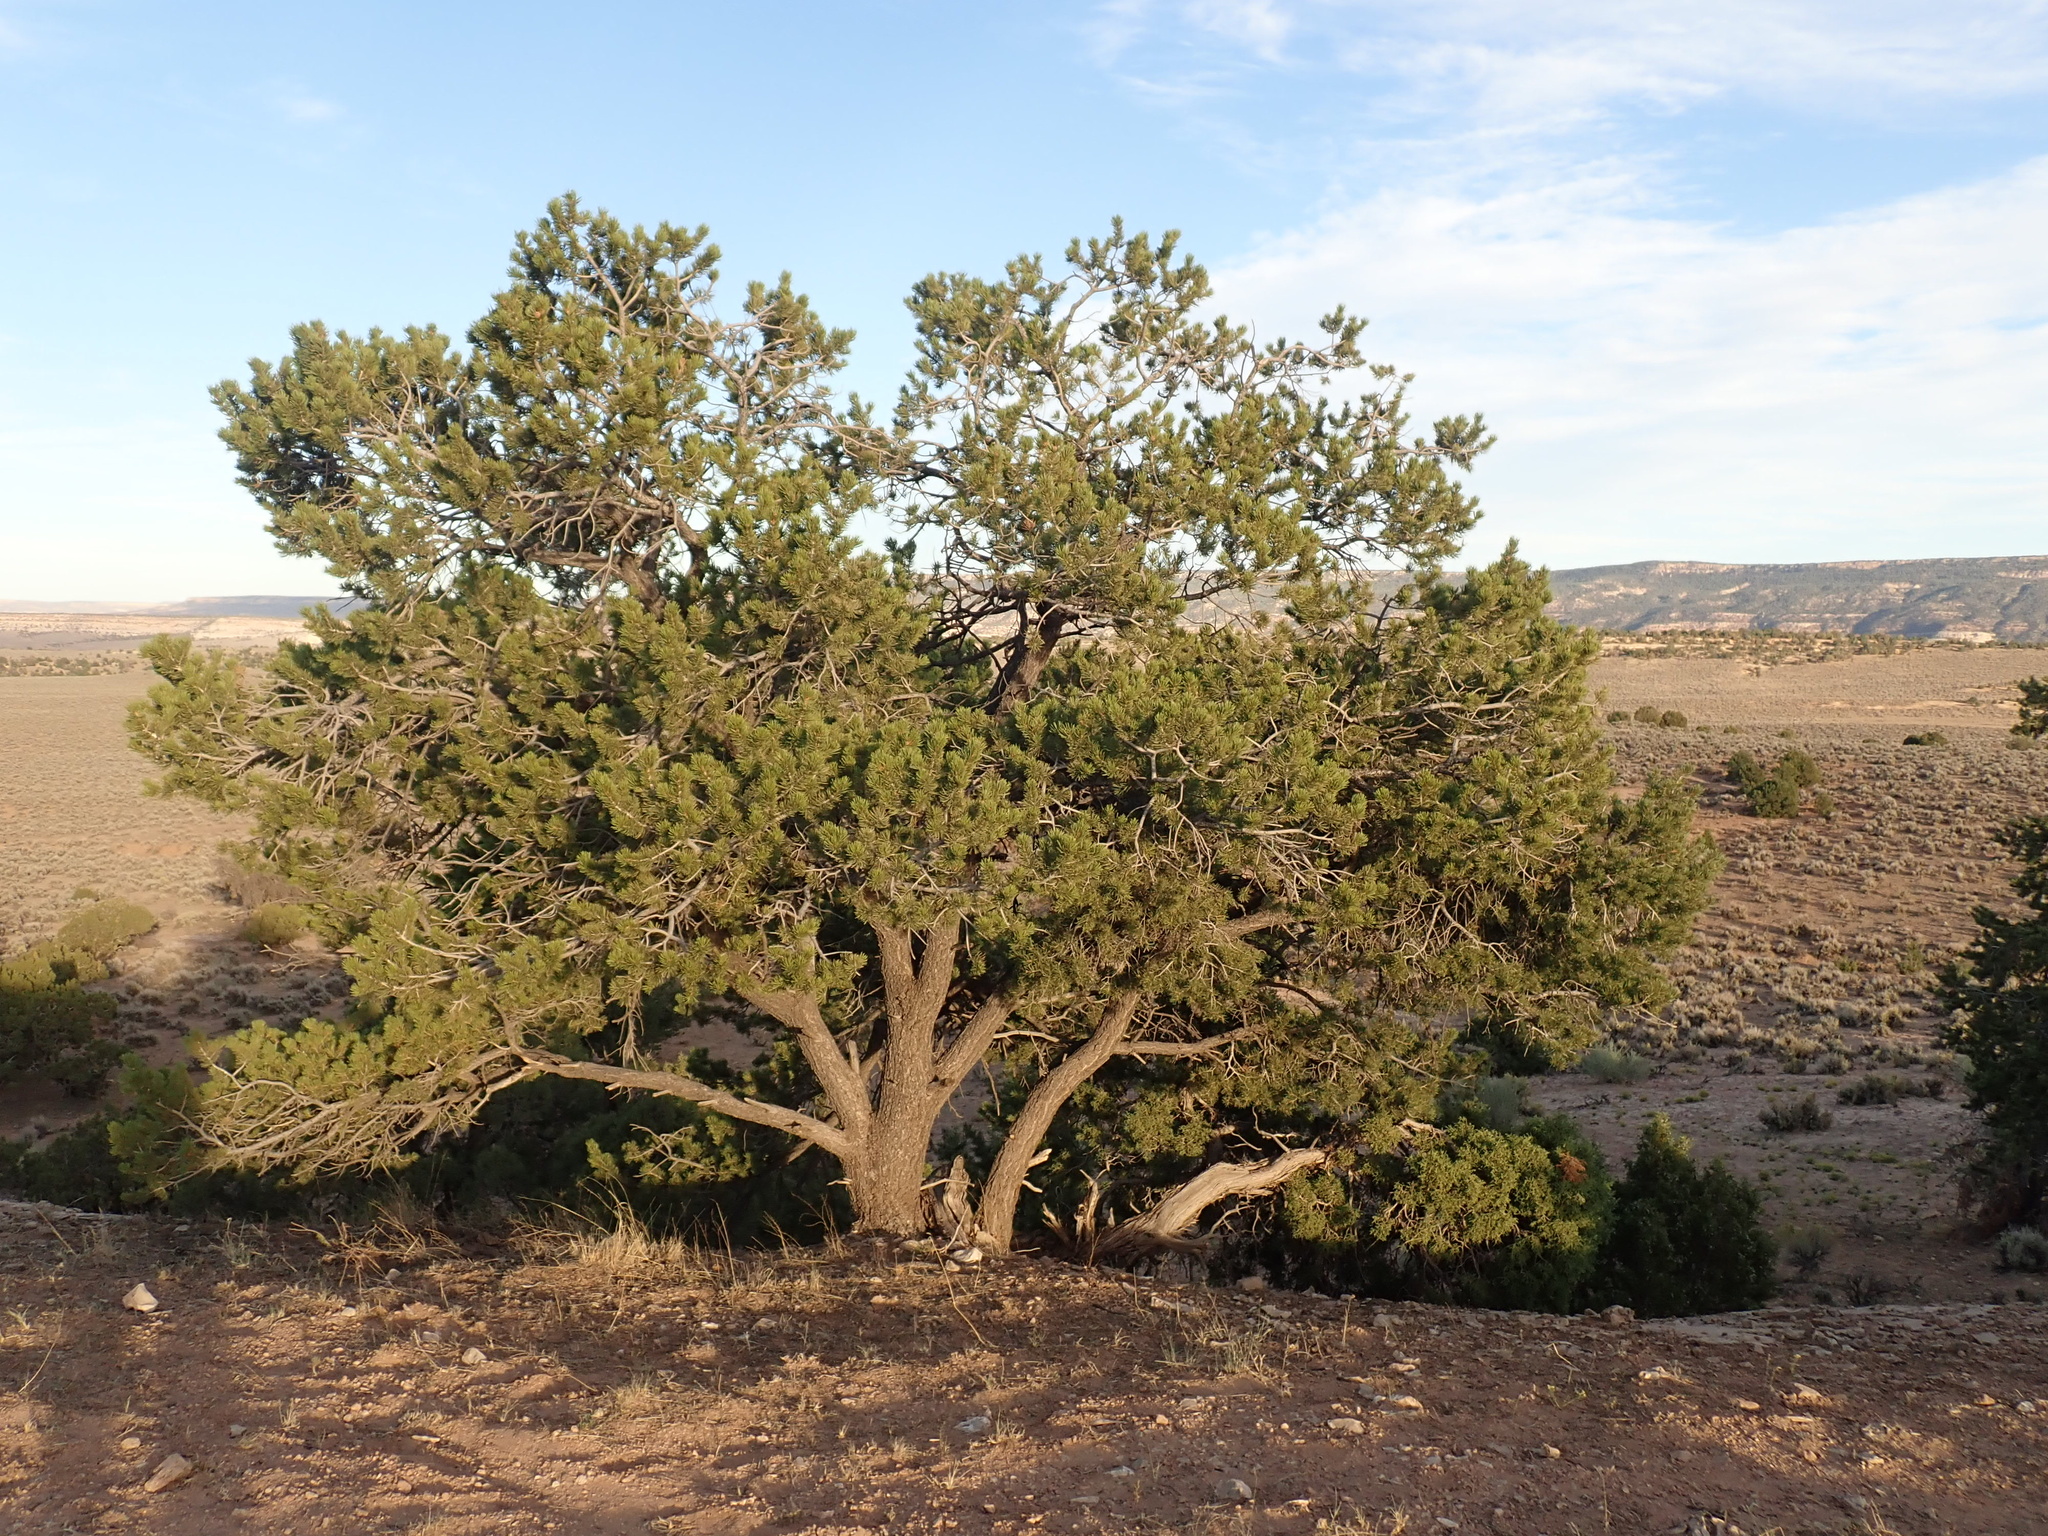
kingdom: Plantae
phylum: Tracheophyta
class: Pinopsida
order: Pinales
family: Pinaceae
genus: Pinus
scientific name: Pinus edulis
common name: Colorado pinyon
